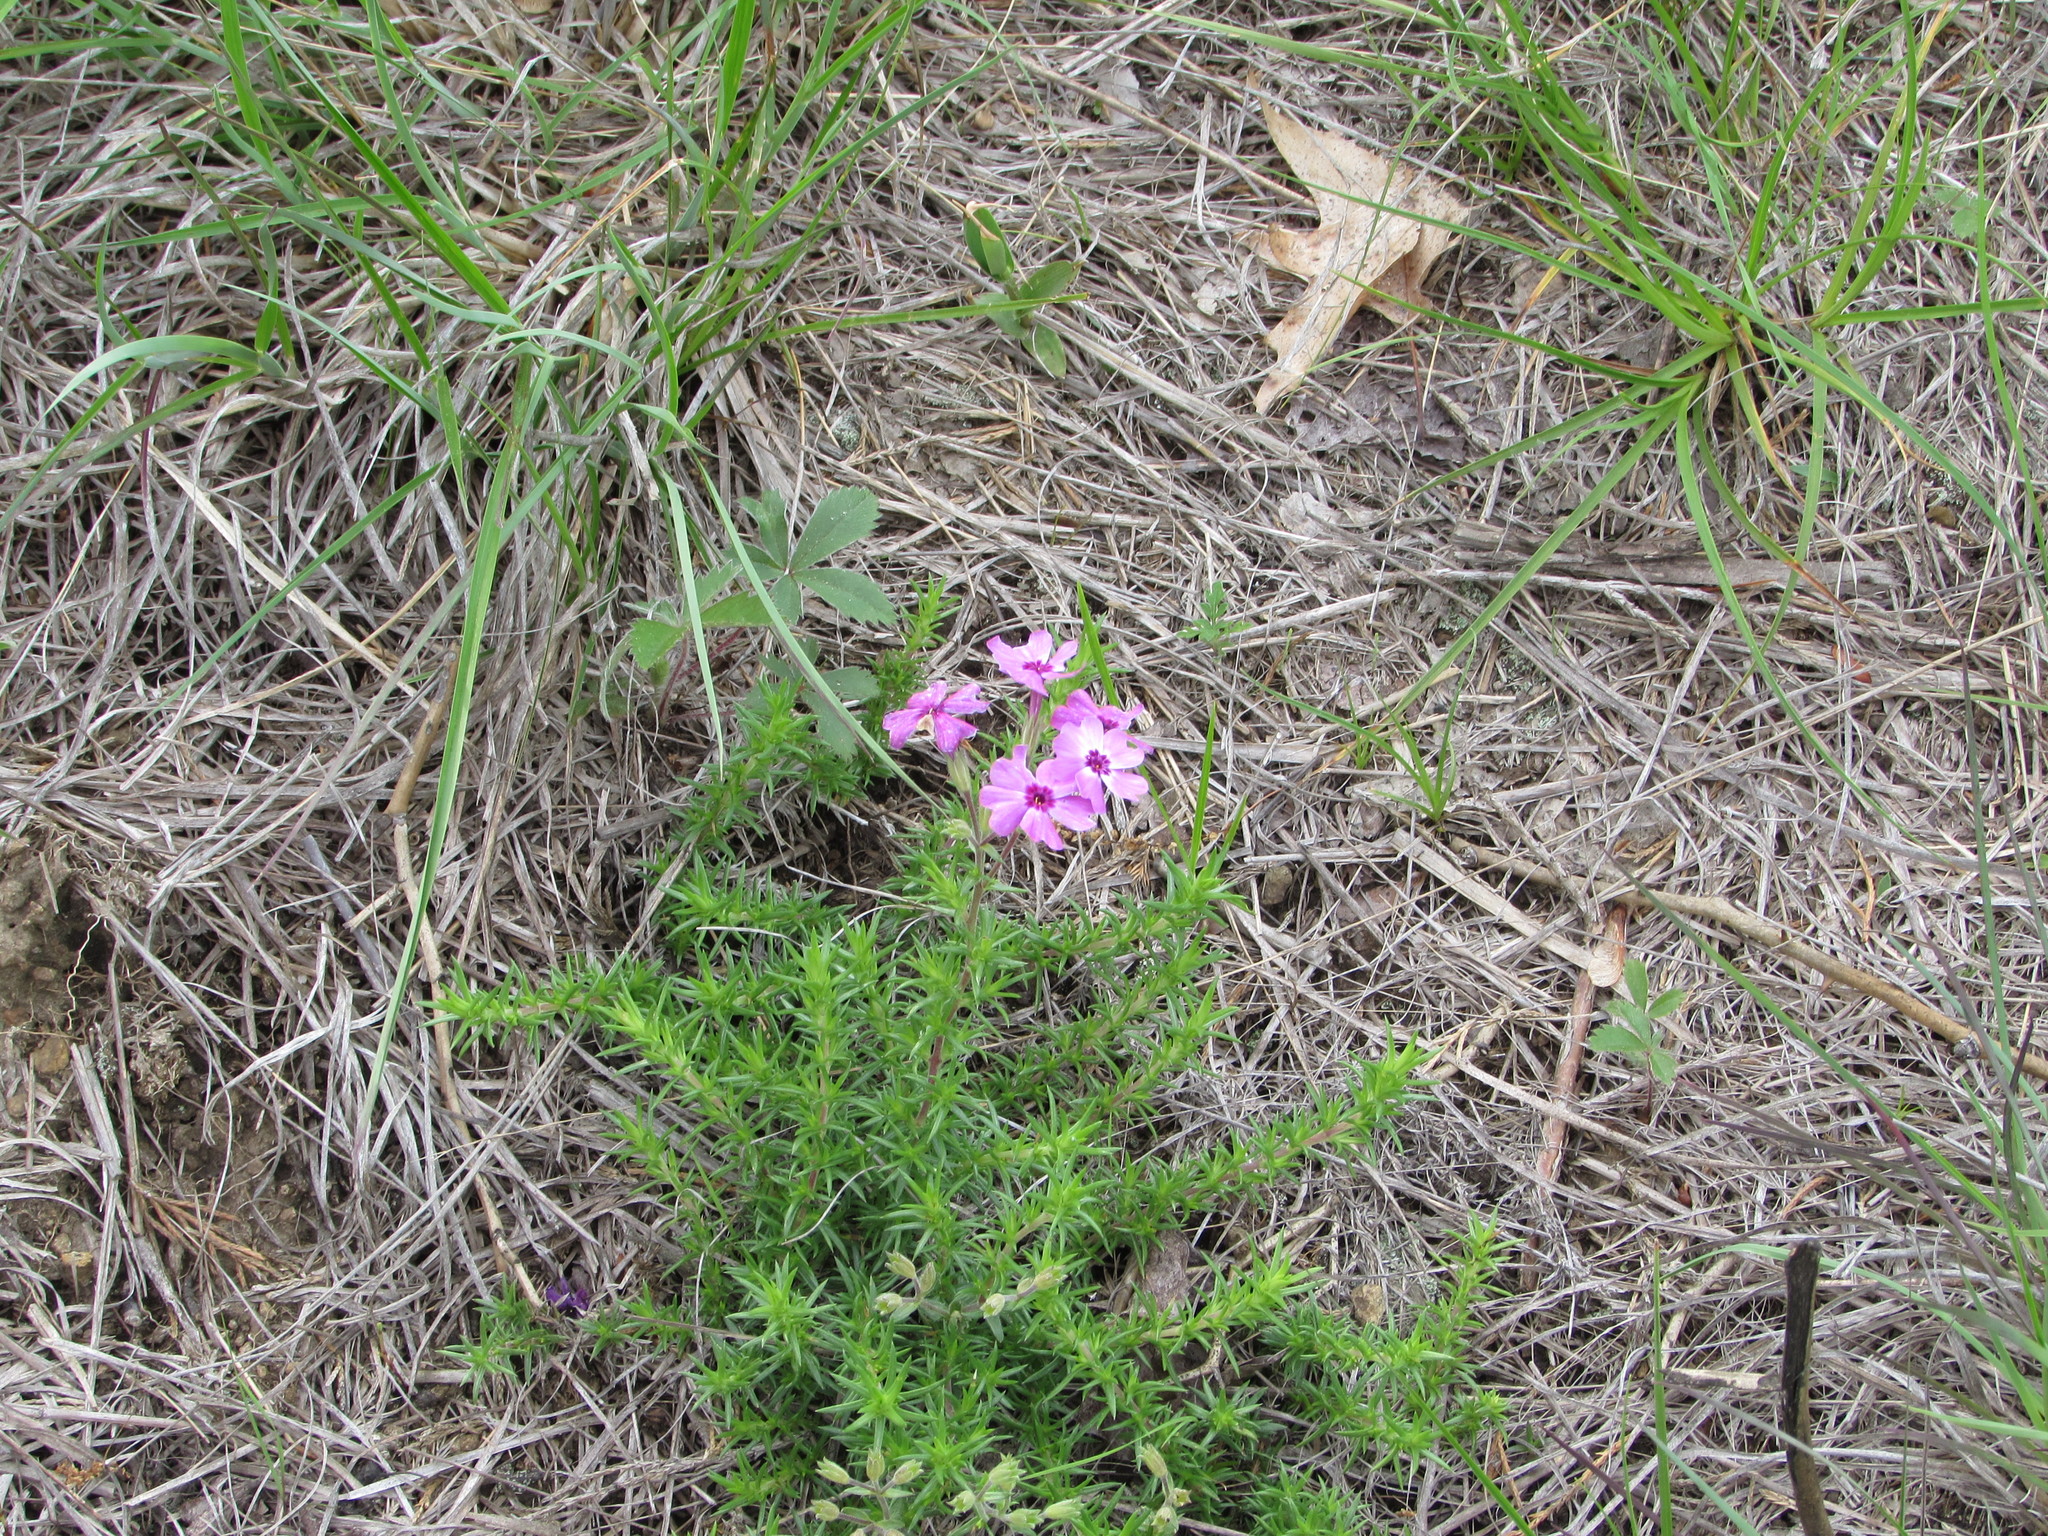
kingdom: Plantae
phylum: Tracheophyta
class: Magnoliopsida
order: Ericales
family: Polemoniaceae
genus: Phlox
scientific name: Phlox subulata
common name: Moss phlox
